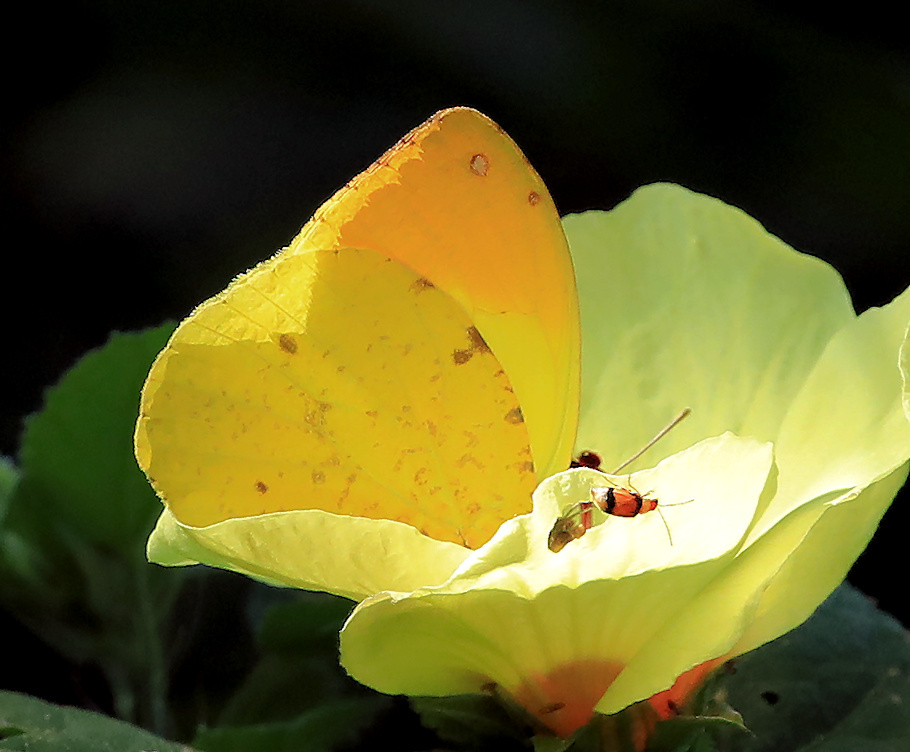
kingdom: Animalia
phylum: Arthropoda
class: Insecta
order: Lepidoptera
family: Pieridae
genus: Eronia
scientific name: Eronia leda
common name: Autumn leaf vagrant
